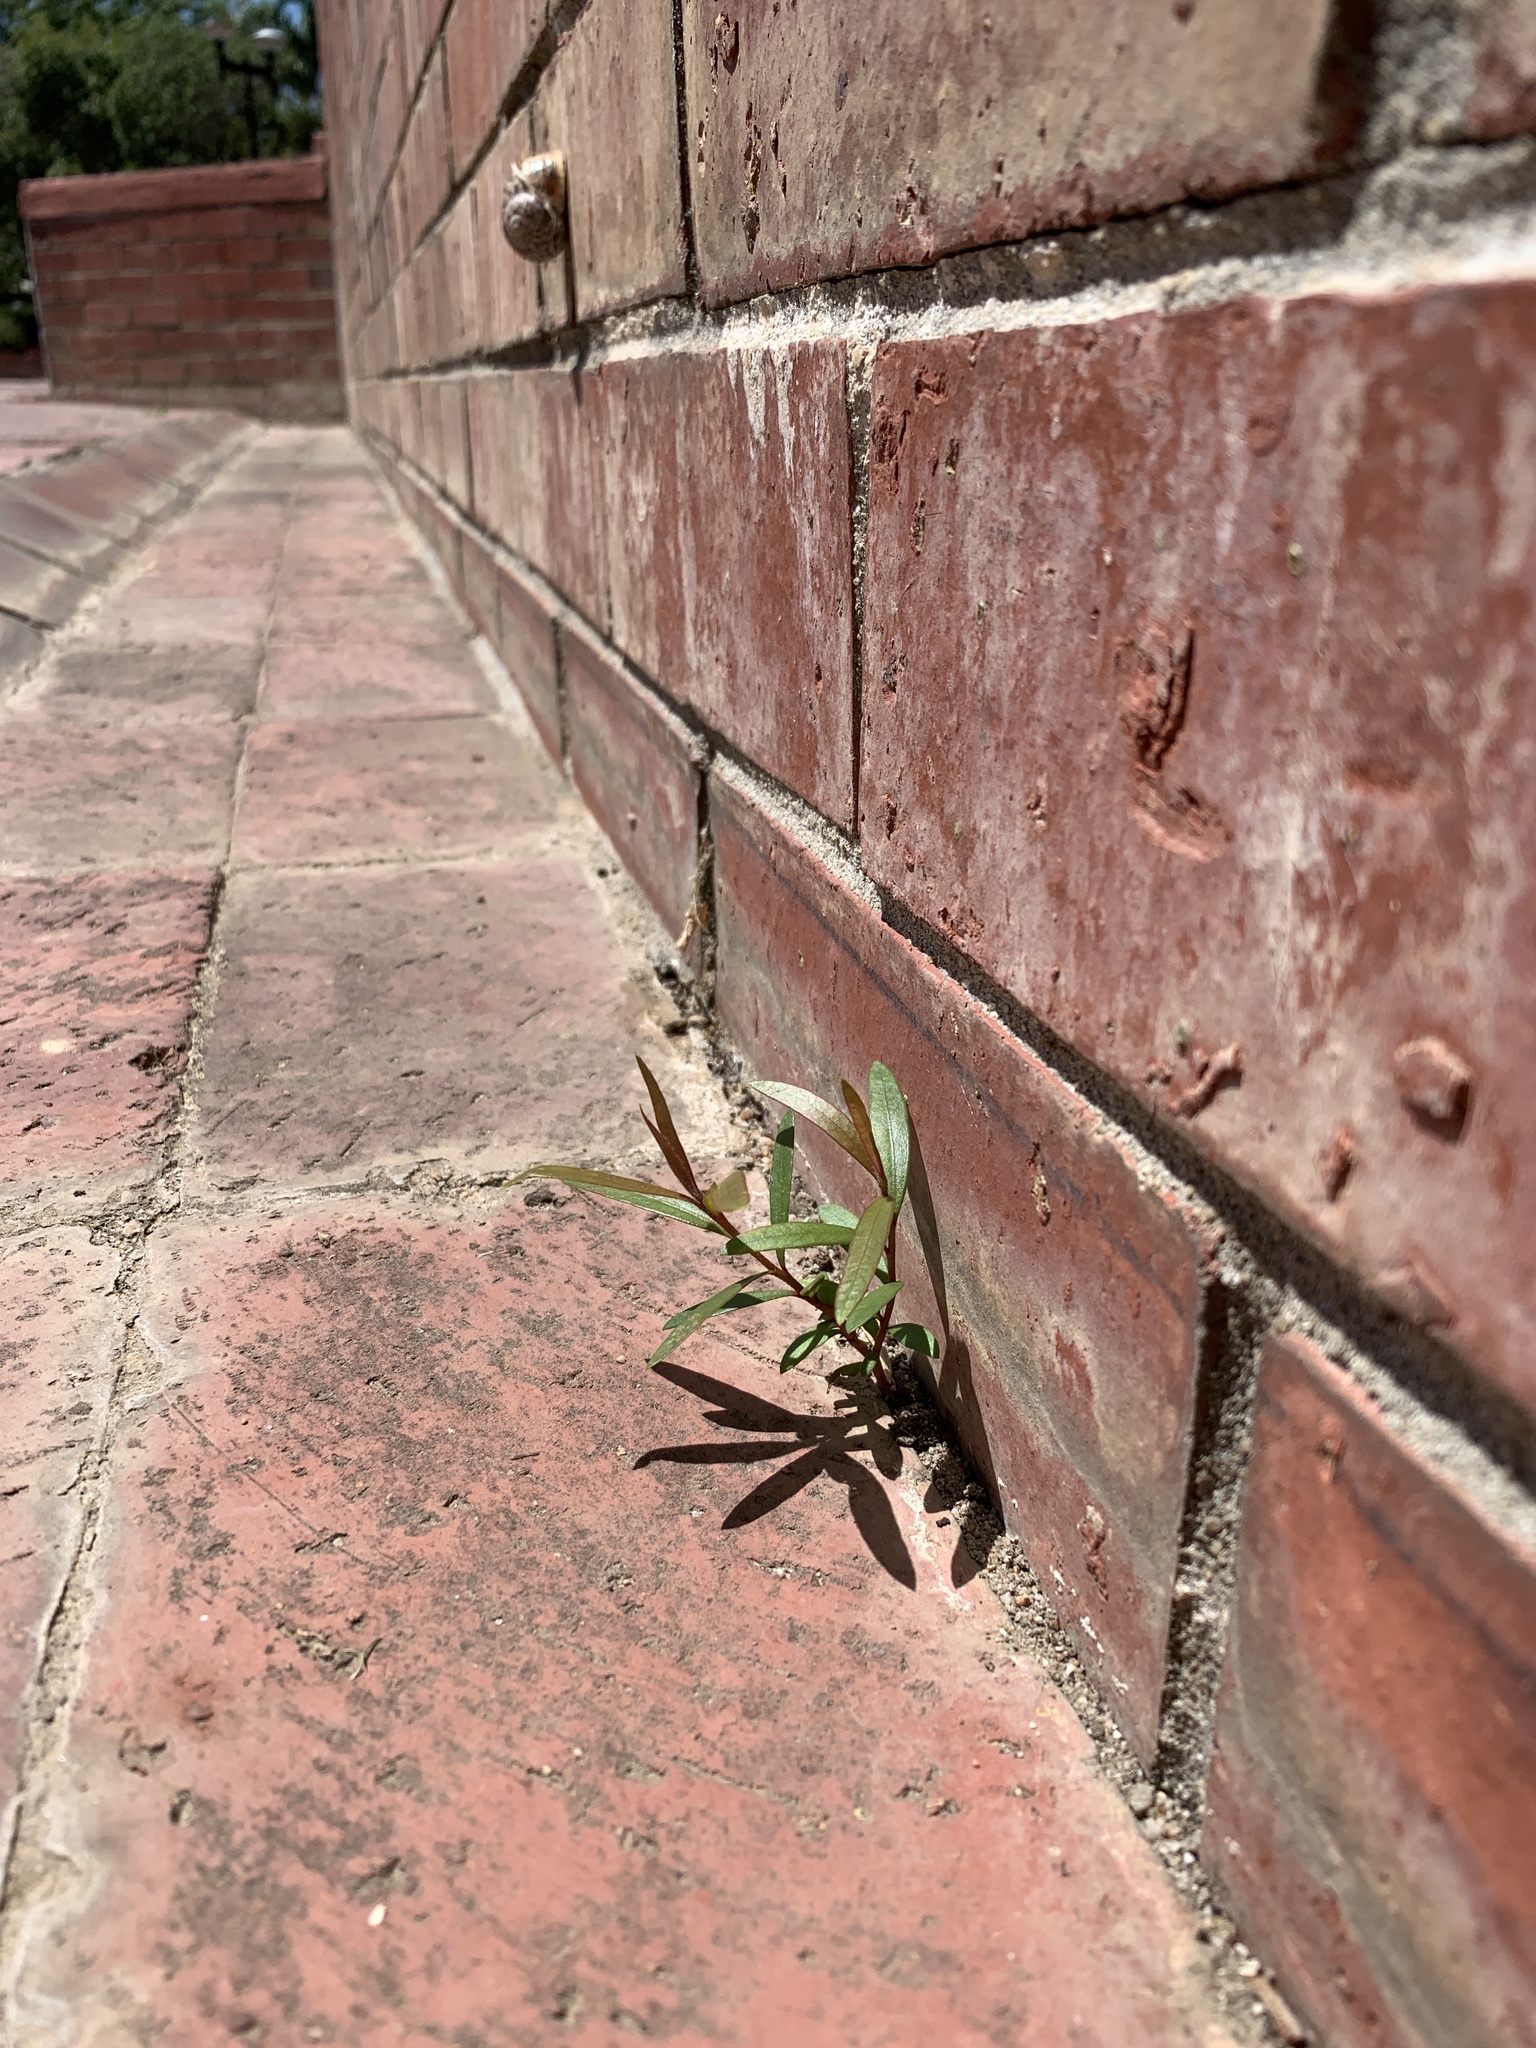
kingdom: Plantae
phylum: Tracheophyta
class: Magnoliopsida
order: Myrtales
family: Myrtaceae
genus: Callistemon
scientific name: Callistemon viminalis
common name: Drooping bottlebrush
